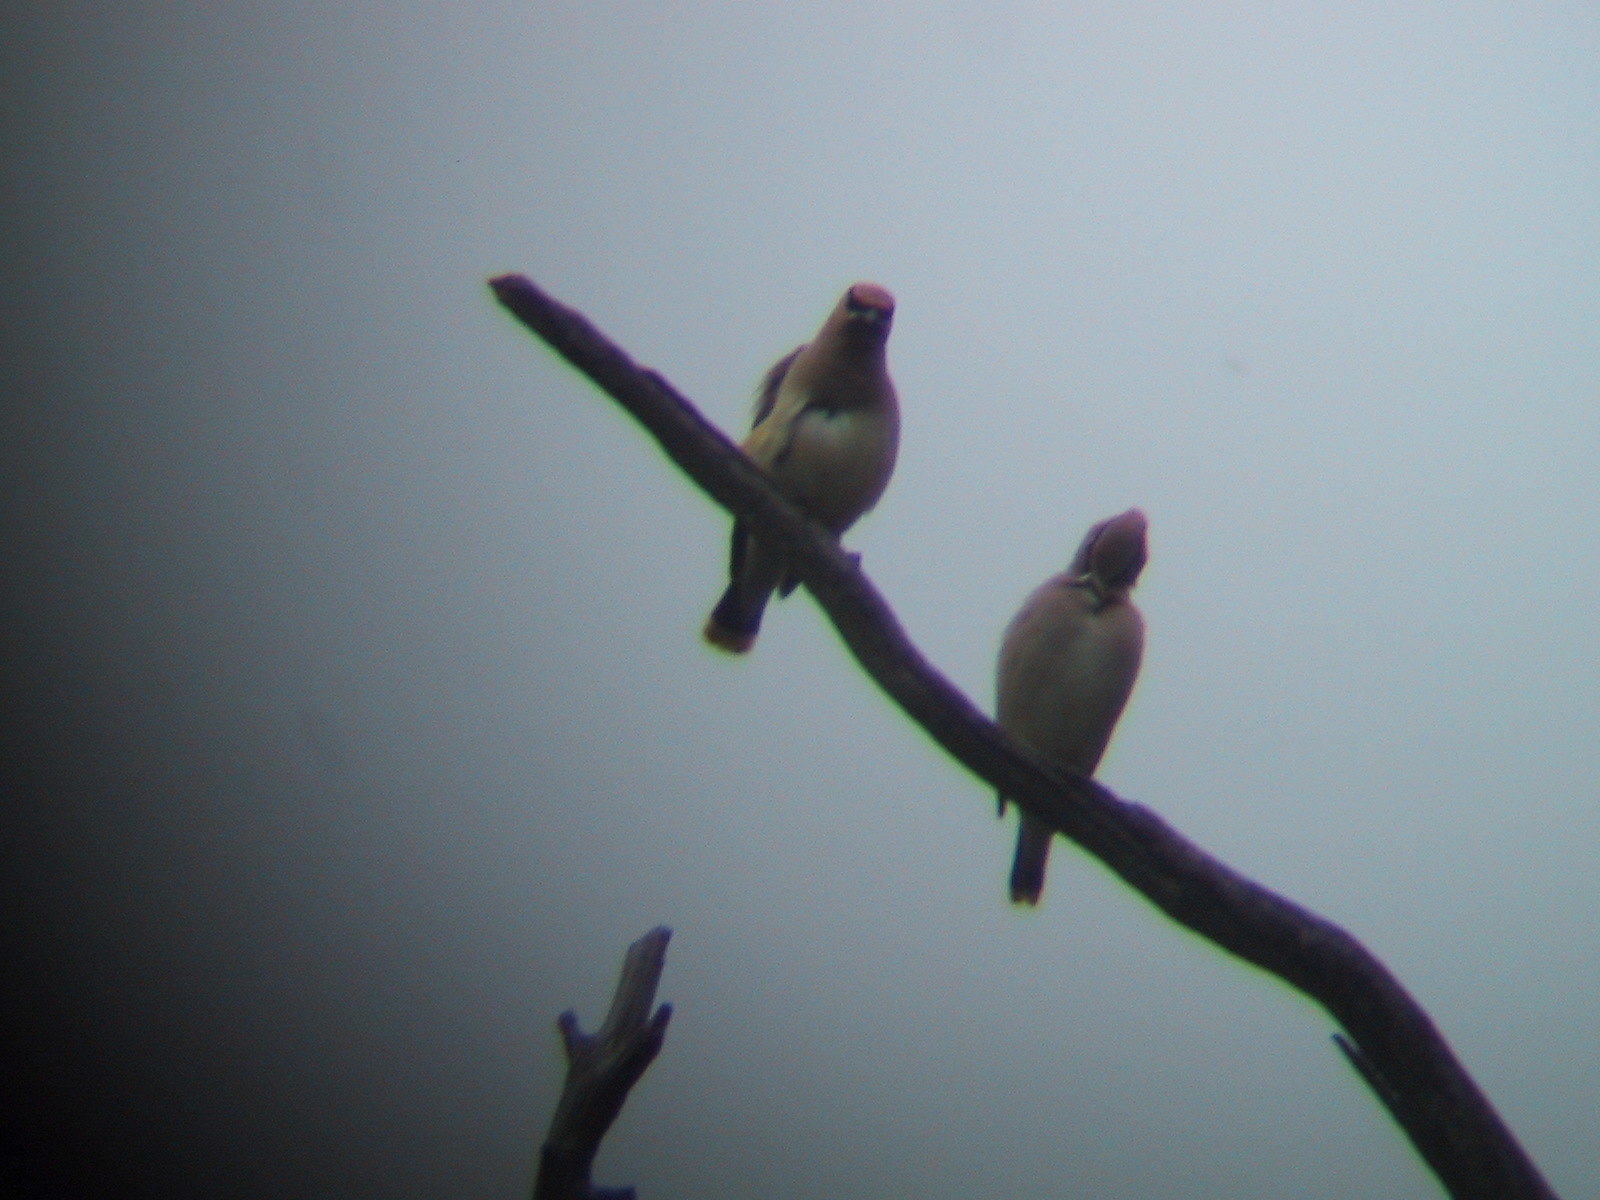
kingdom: Animalia
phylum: Chordata
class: Aves
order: Passeriformes
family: Bombycillidae
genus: Bombycilla
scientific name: Bombycilla cedrorum
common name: Cedar waxwing
